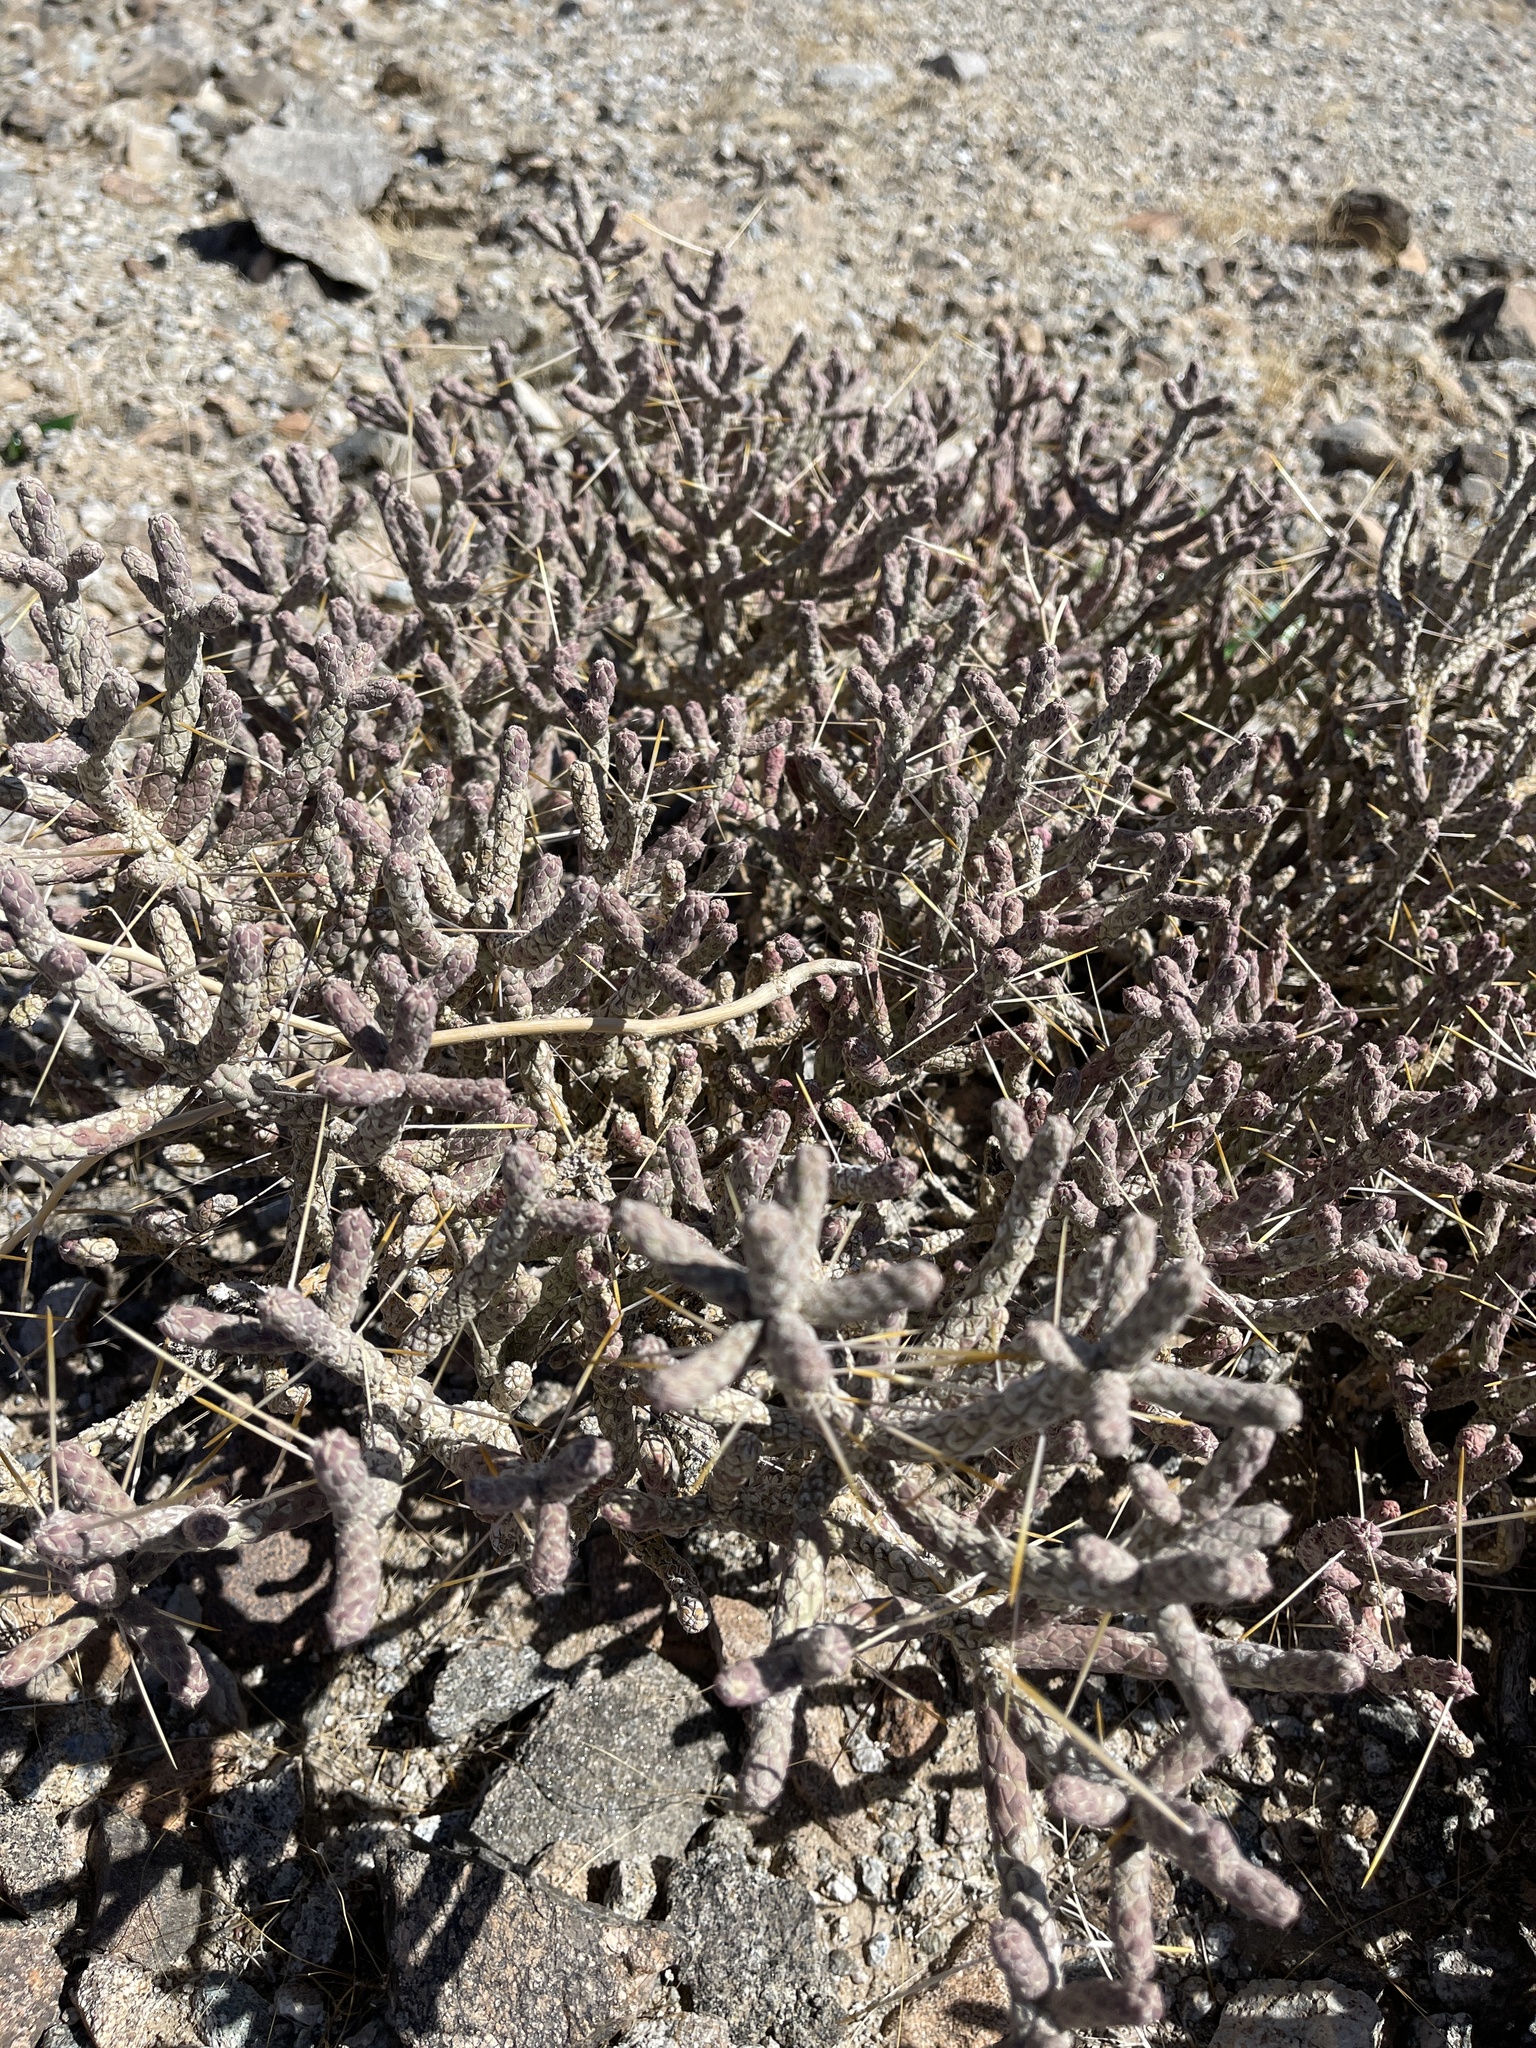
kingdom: Plantae
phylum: Tracheophyta
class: Magnoliopsida
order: Caryophyllales
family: Cactaceae
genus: Cylindropuntia
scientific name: Cylindropuntia ramosissima
